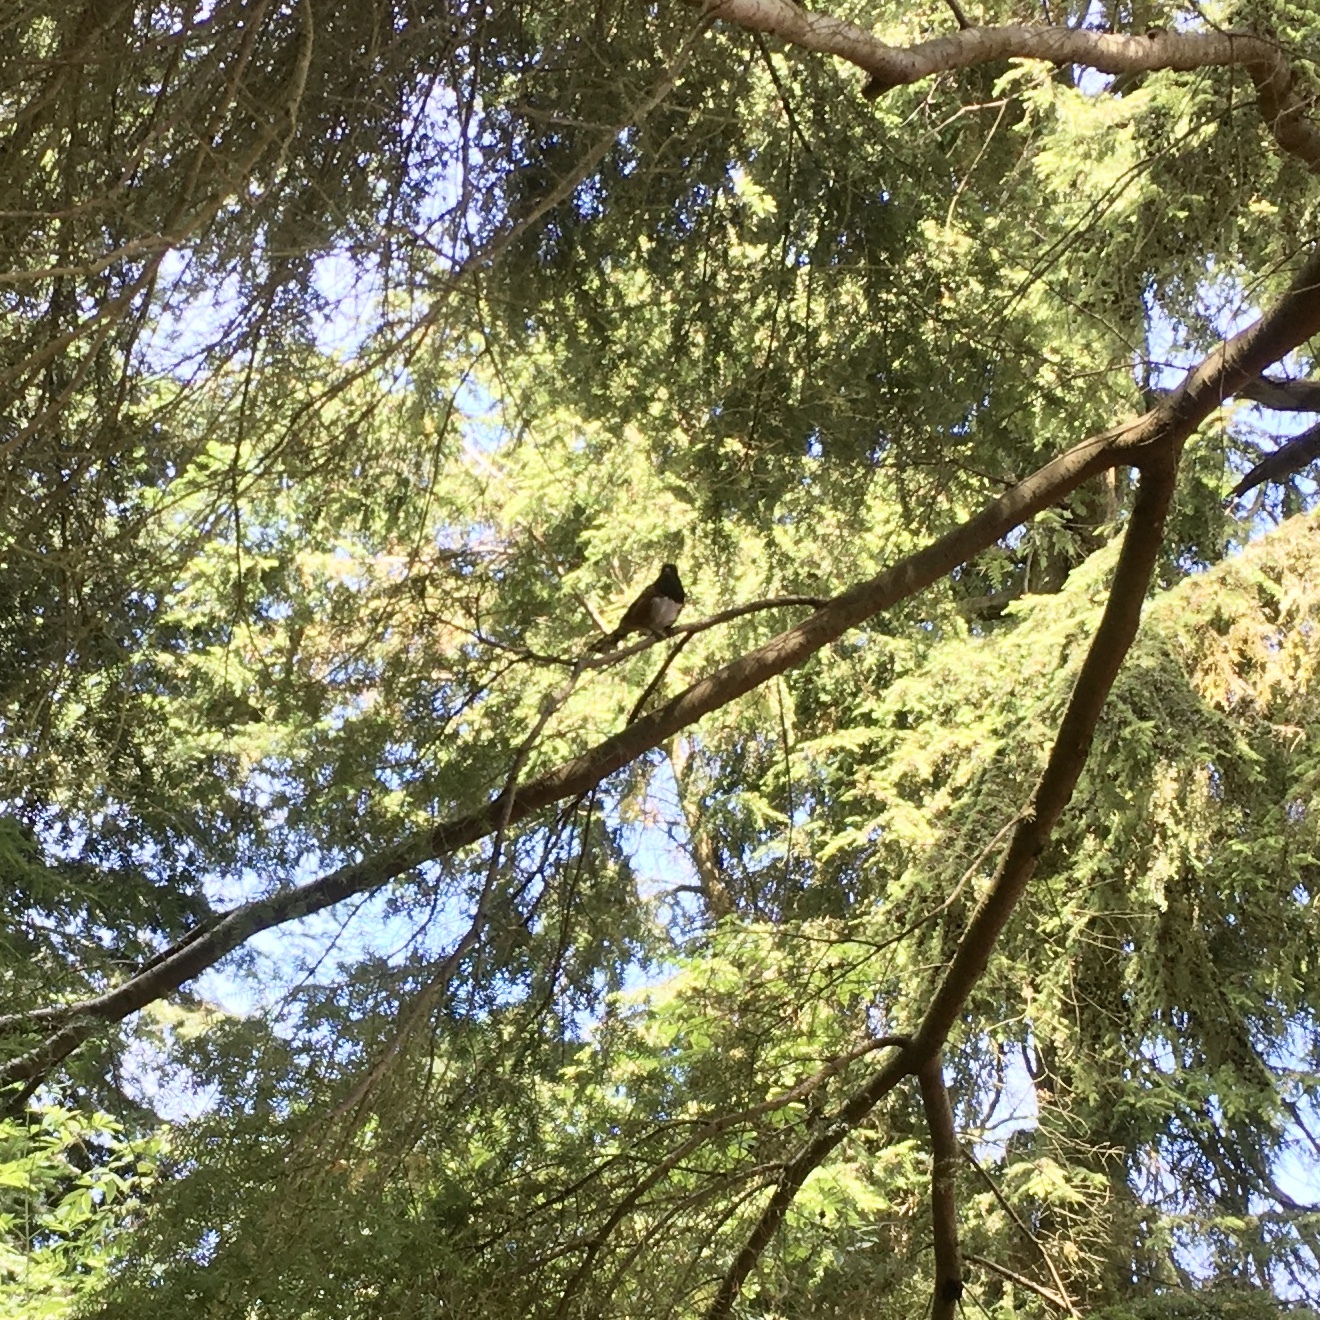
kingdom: Animalia
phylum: Chordata
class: Aves
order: Passeriformes
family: Passerellidae
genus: Pipilo
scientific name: Pipilo maculatus
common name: Spotted towhee
